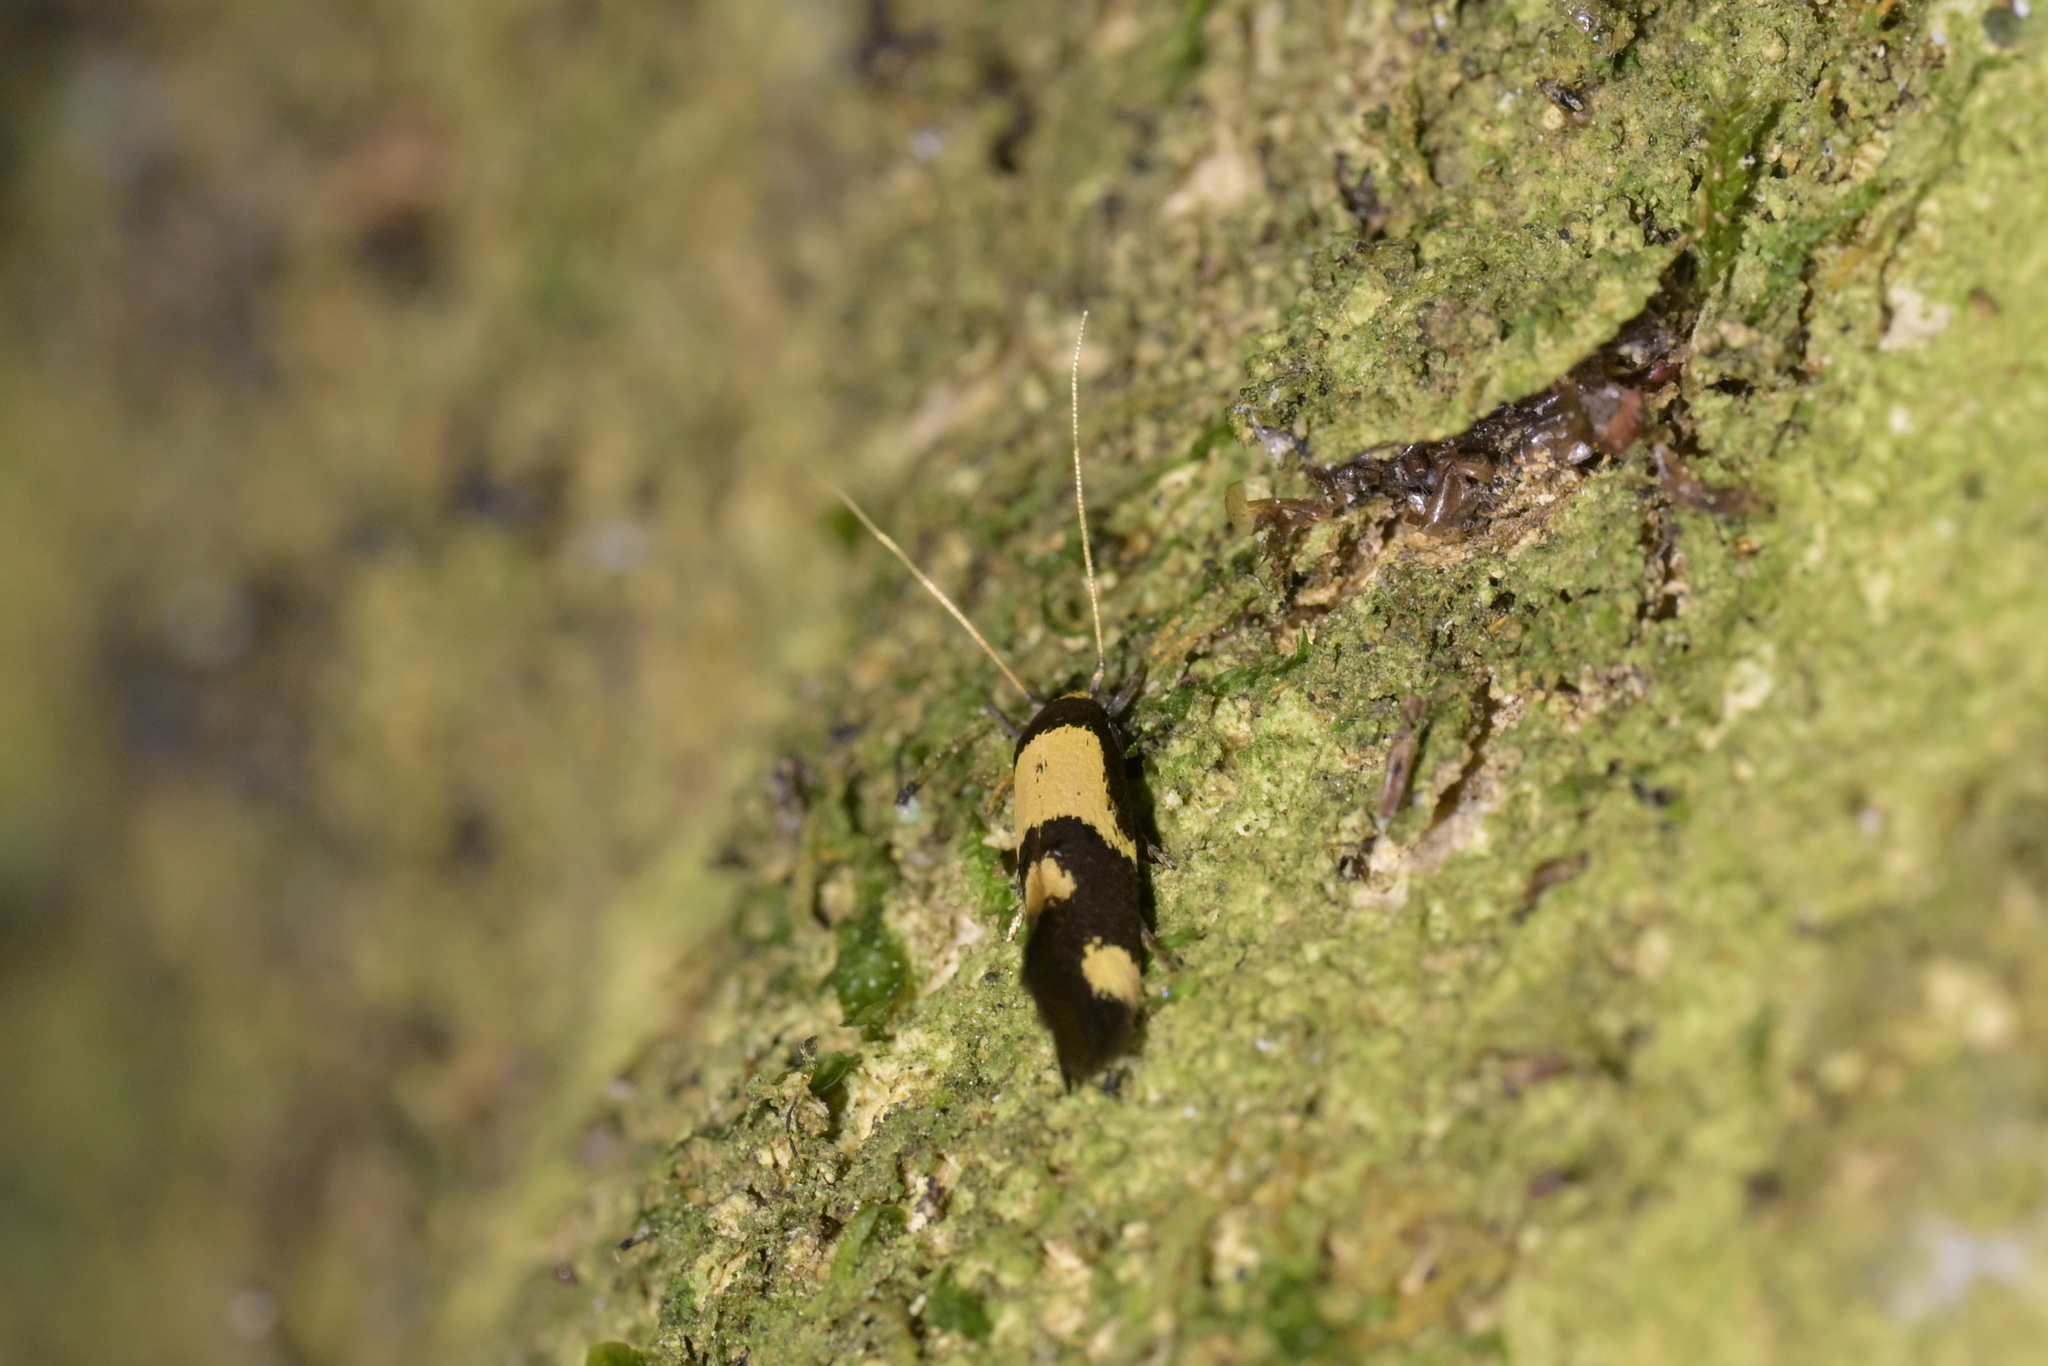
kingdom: Animalia
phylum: Arthropoda
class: Insecta
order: Lepidoptera
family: Tineidae
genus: Opogona
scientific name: Opogona comptella
